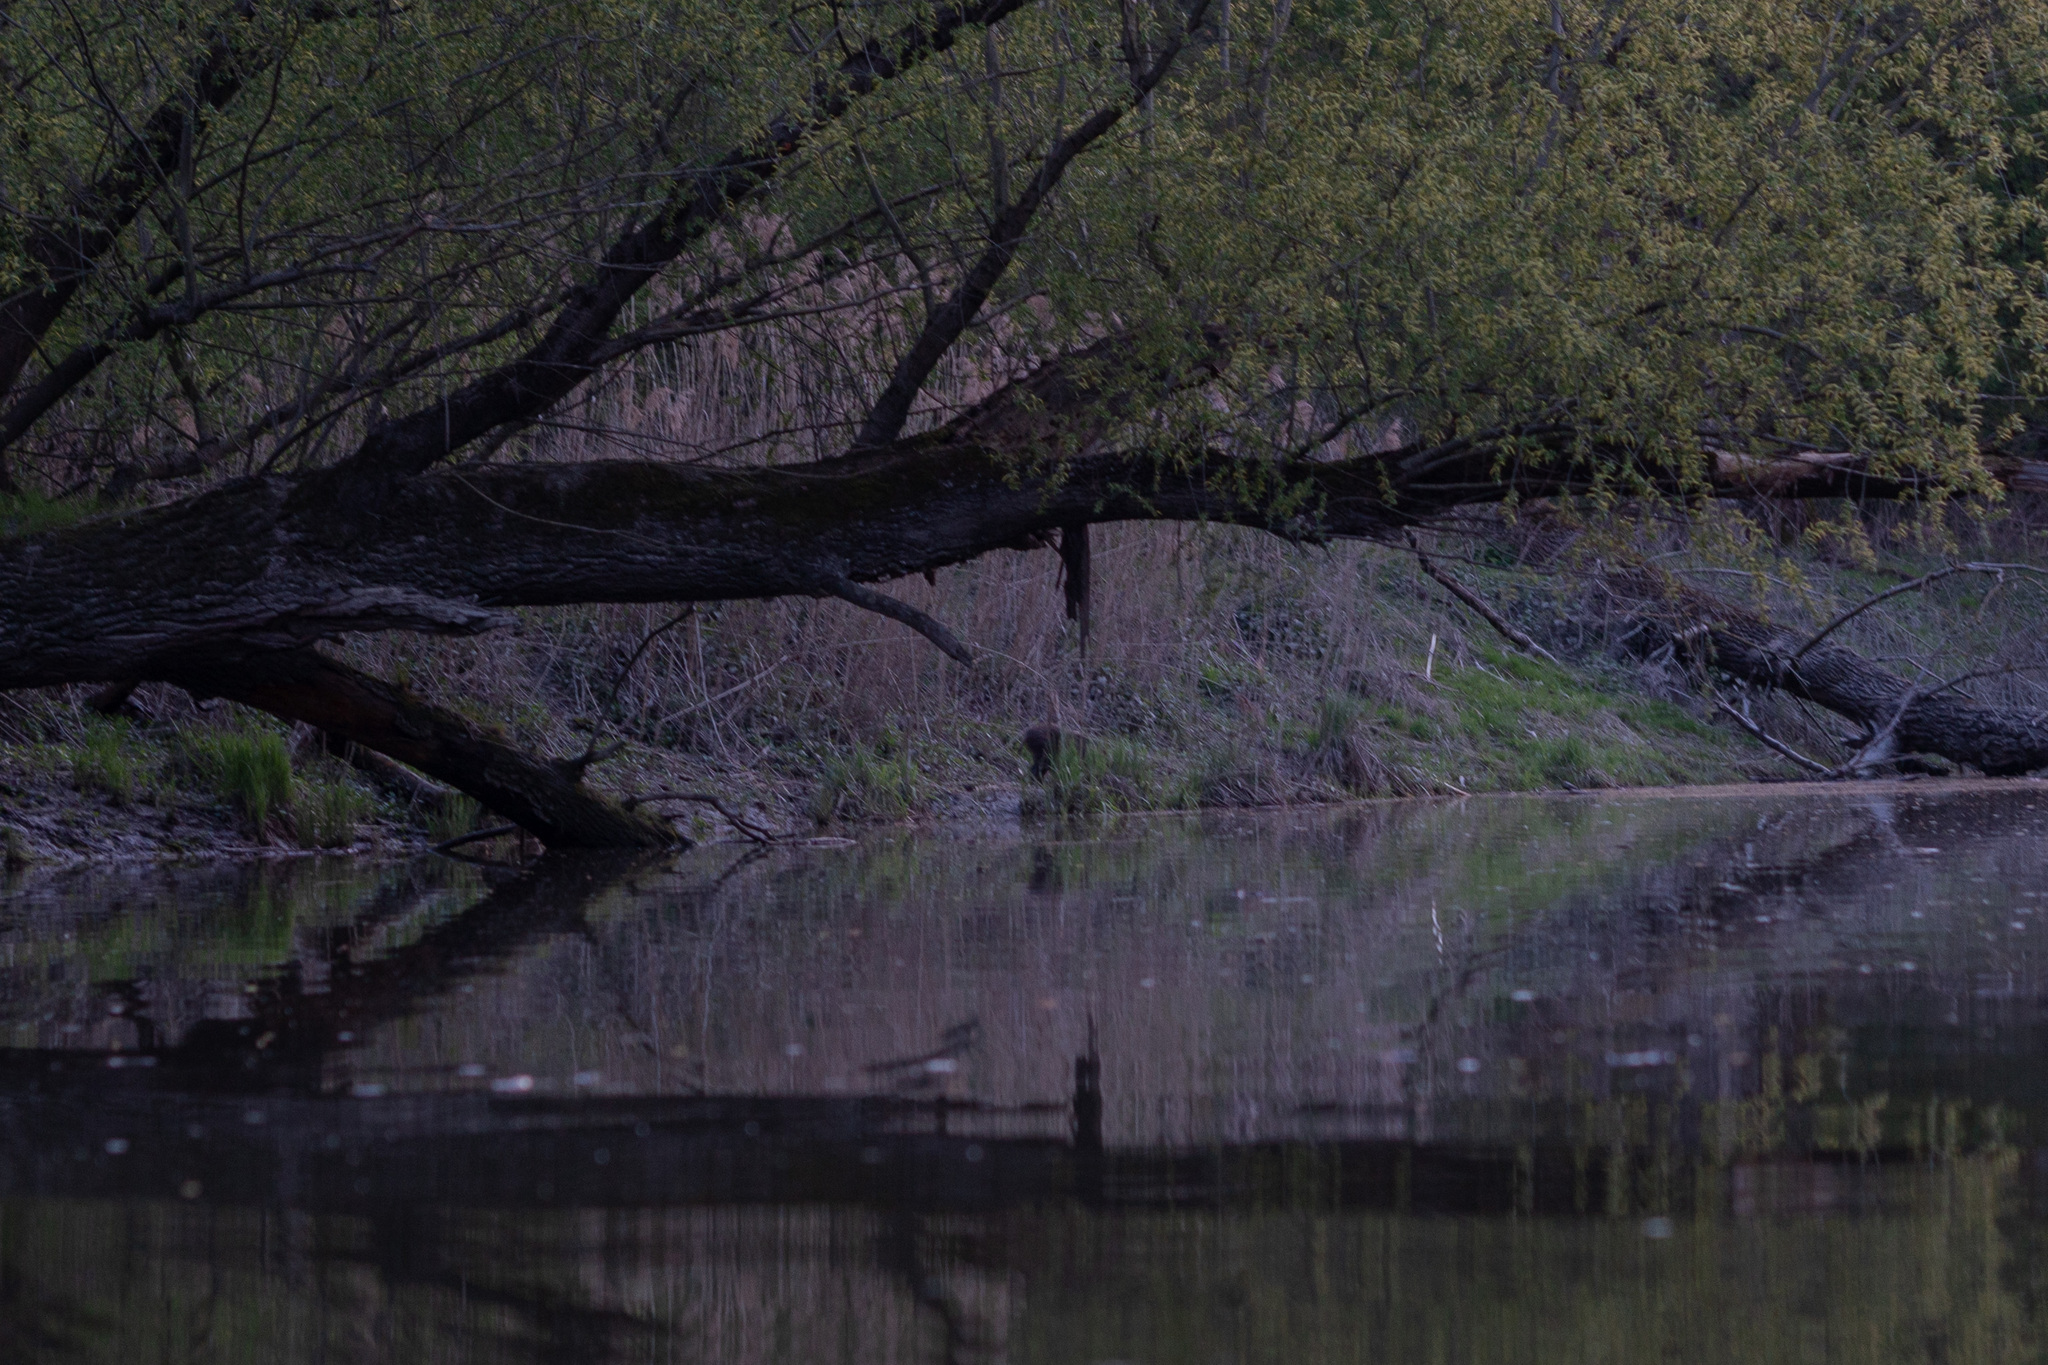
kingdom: Animalia
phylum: Chordata
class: Mammalia
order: Artiodactyla
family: Suidae
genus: Sus
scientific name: Sus scrofa
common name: Wild boar
